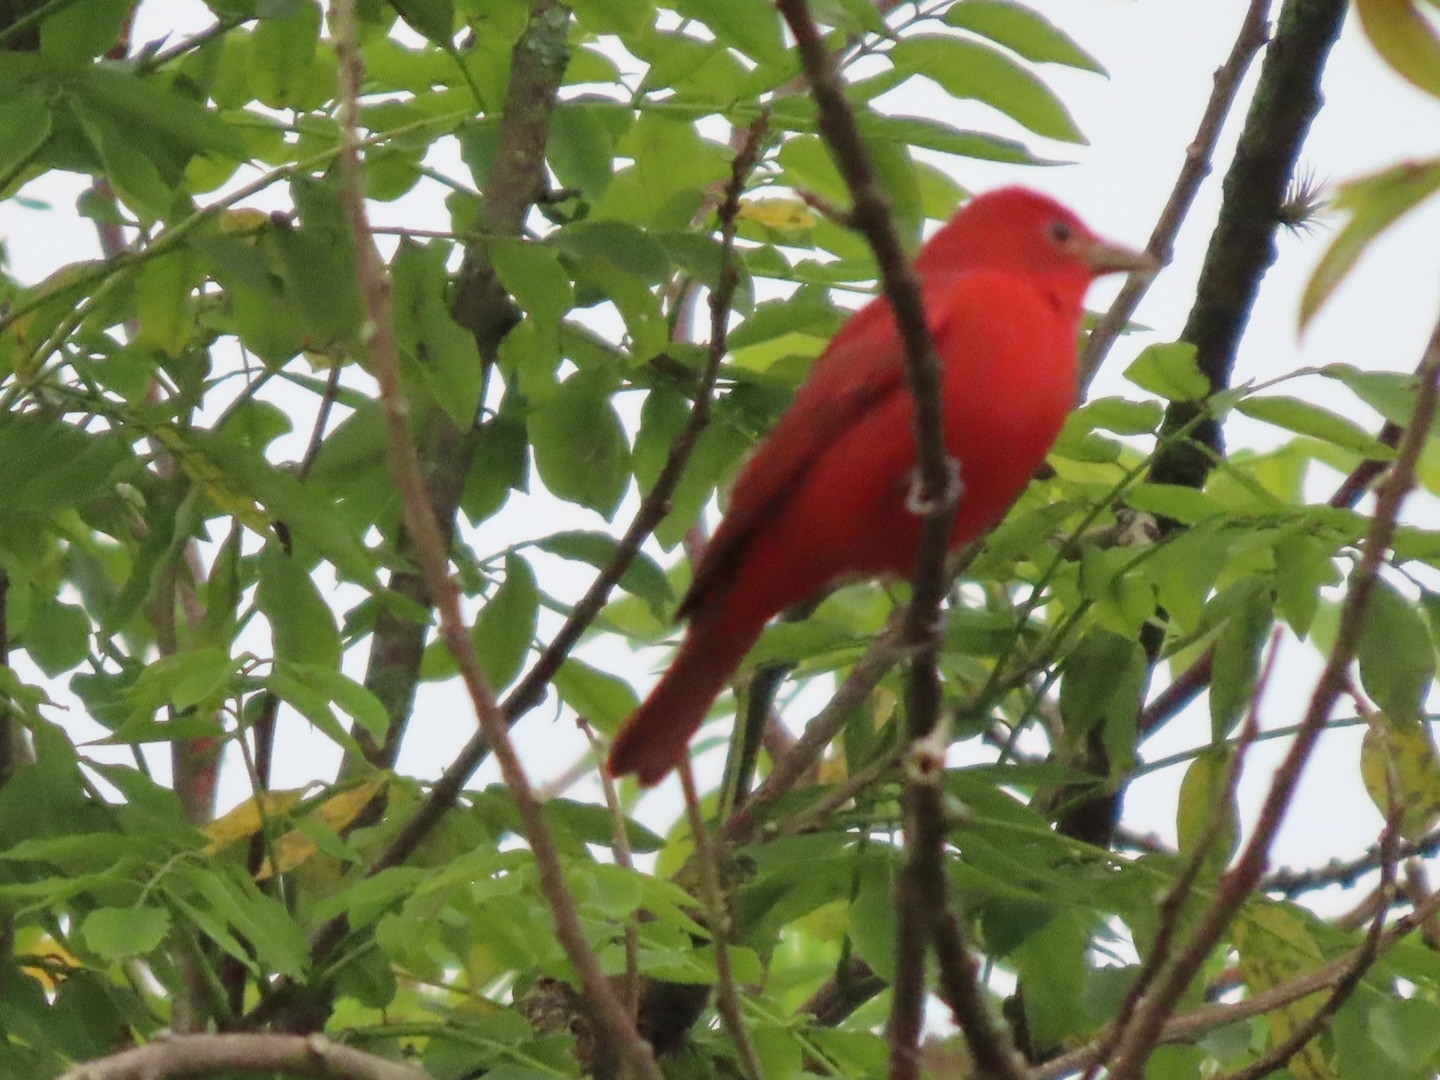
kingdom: Animalia
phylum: Chordata
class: Aves
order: Passeriformes
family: Cardinalidae
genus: Piranga
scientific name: Piranga rubra
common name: Summer tanager
